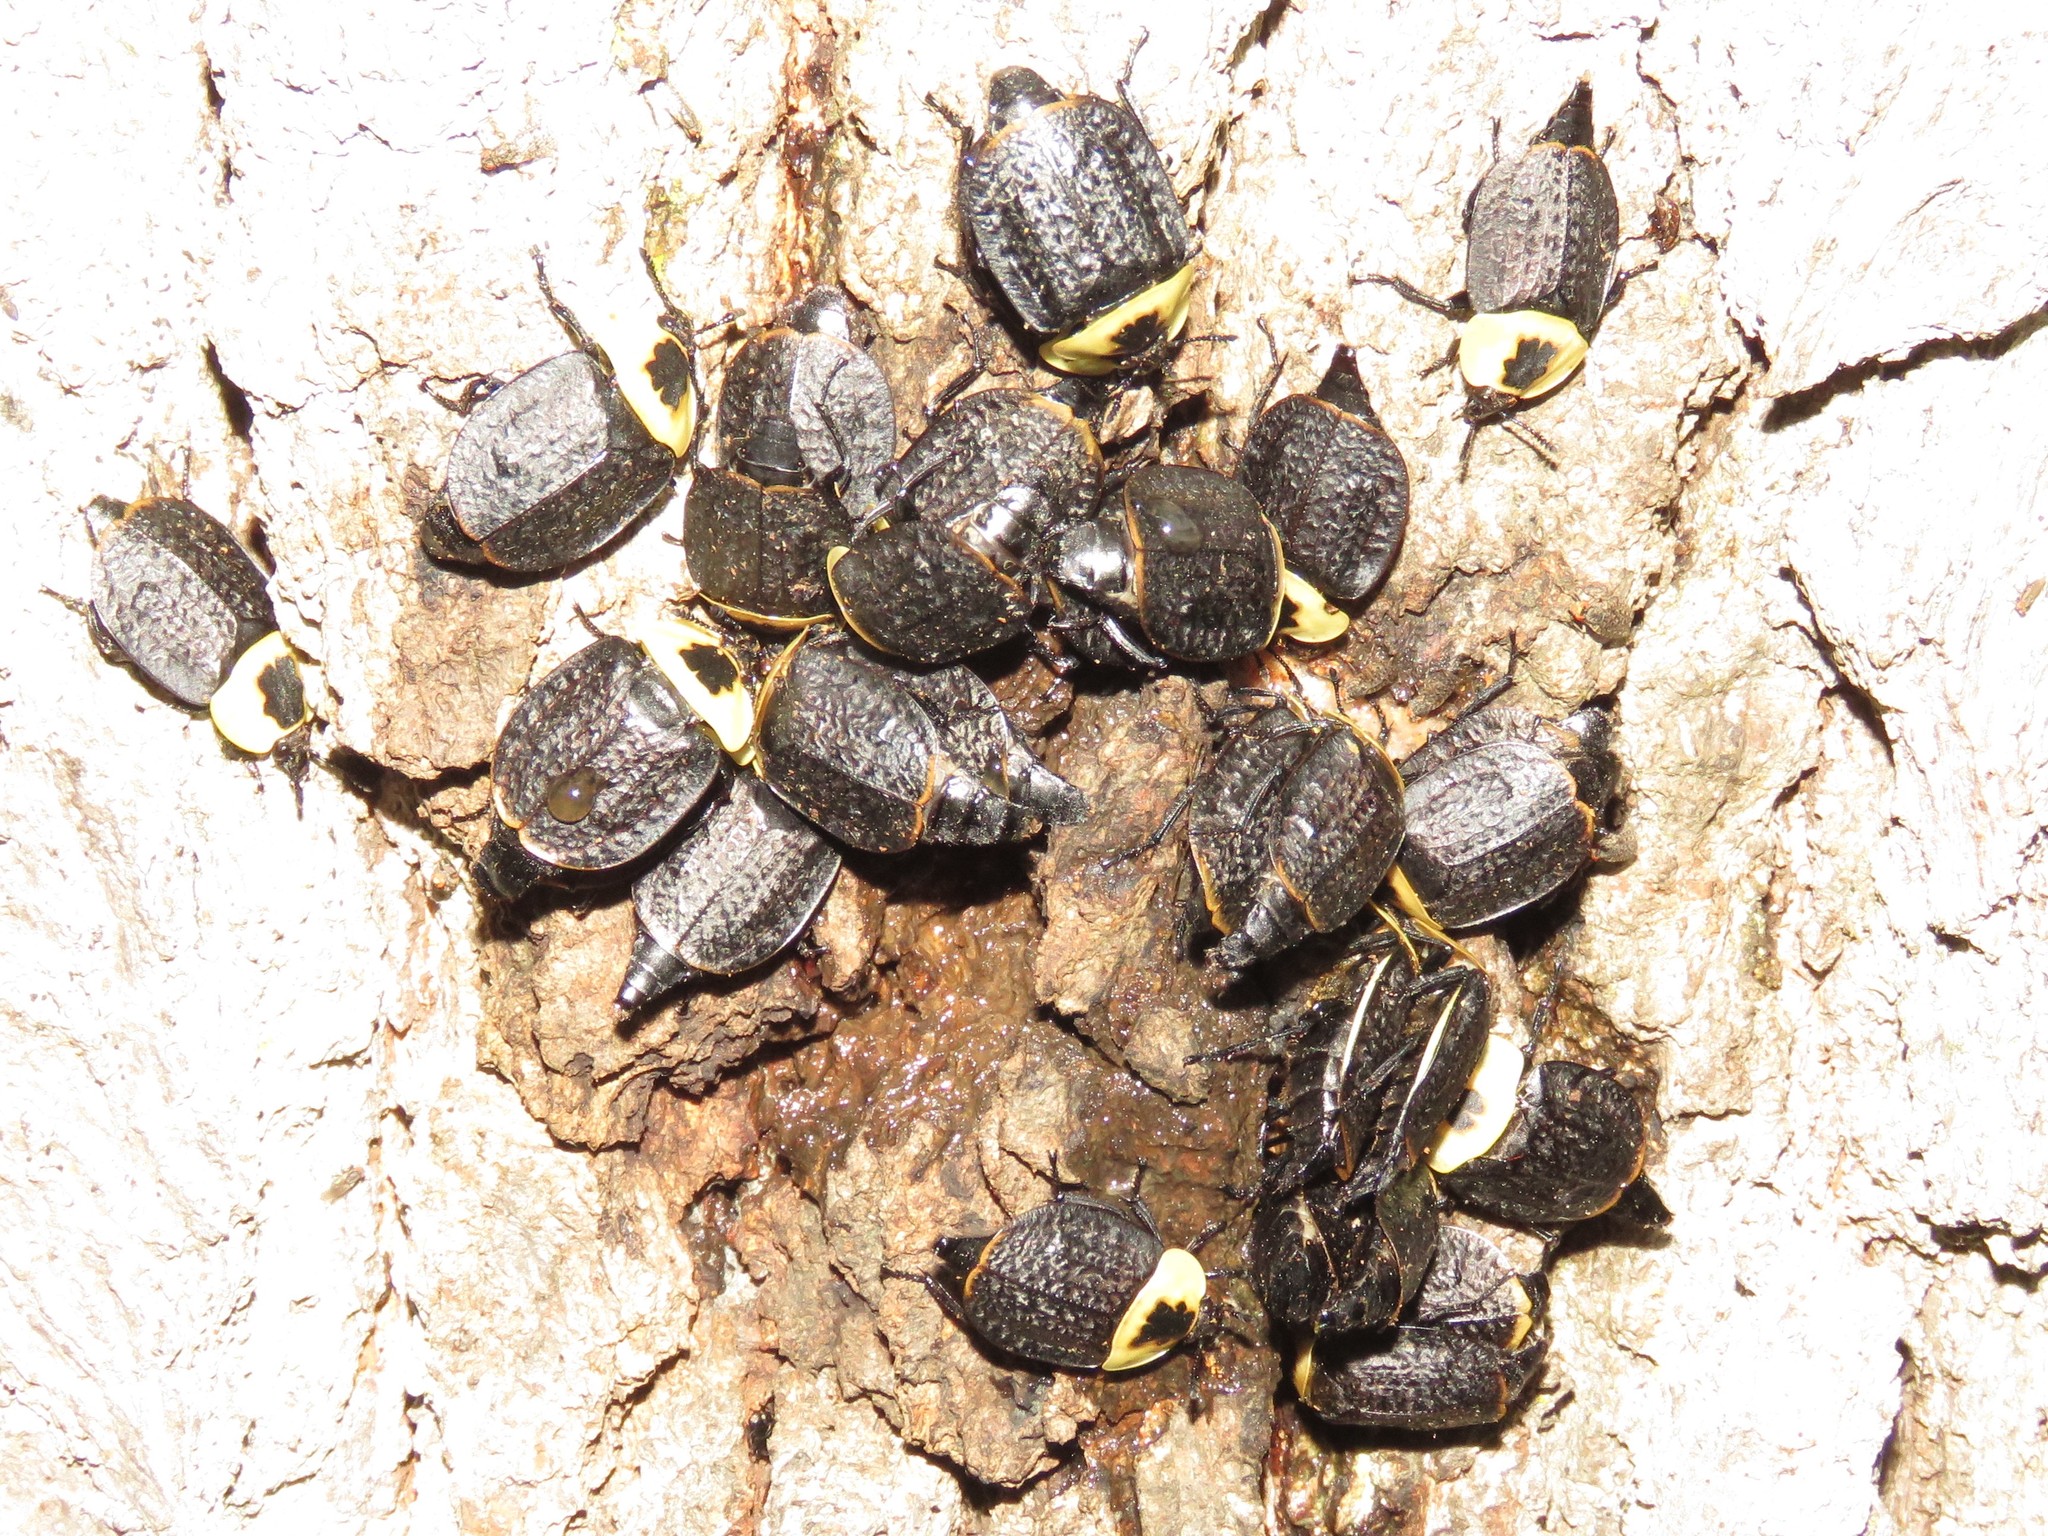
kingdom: Animalia
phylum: Arthropoda
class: Insecta
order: Coleoptera
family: Staphylinidae
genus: Necrophila
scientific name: Necrophila americana
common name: American carrion beetle
